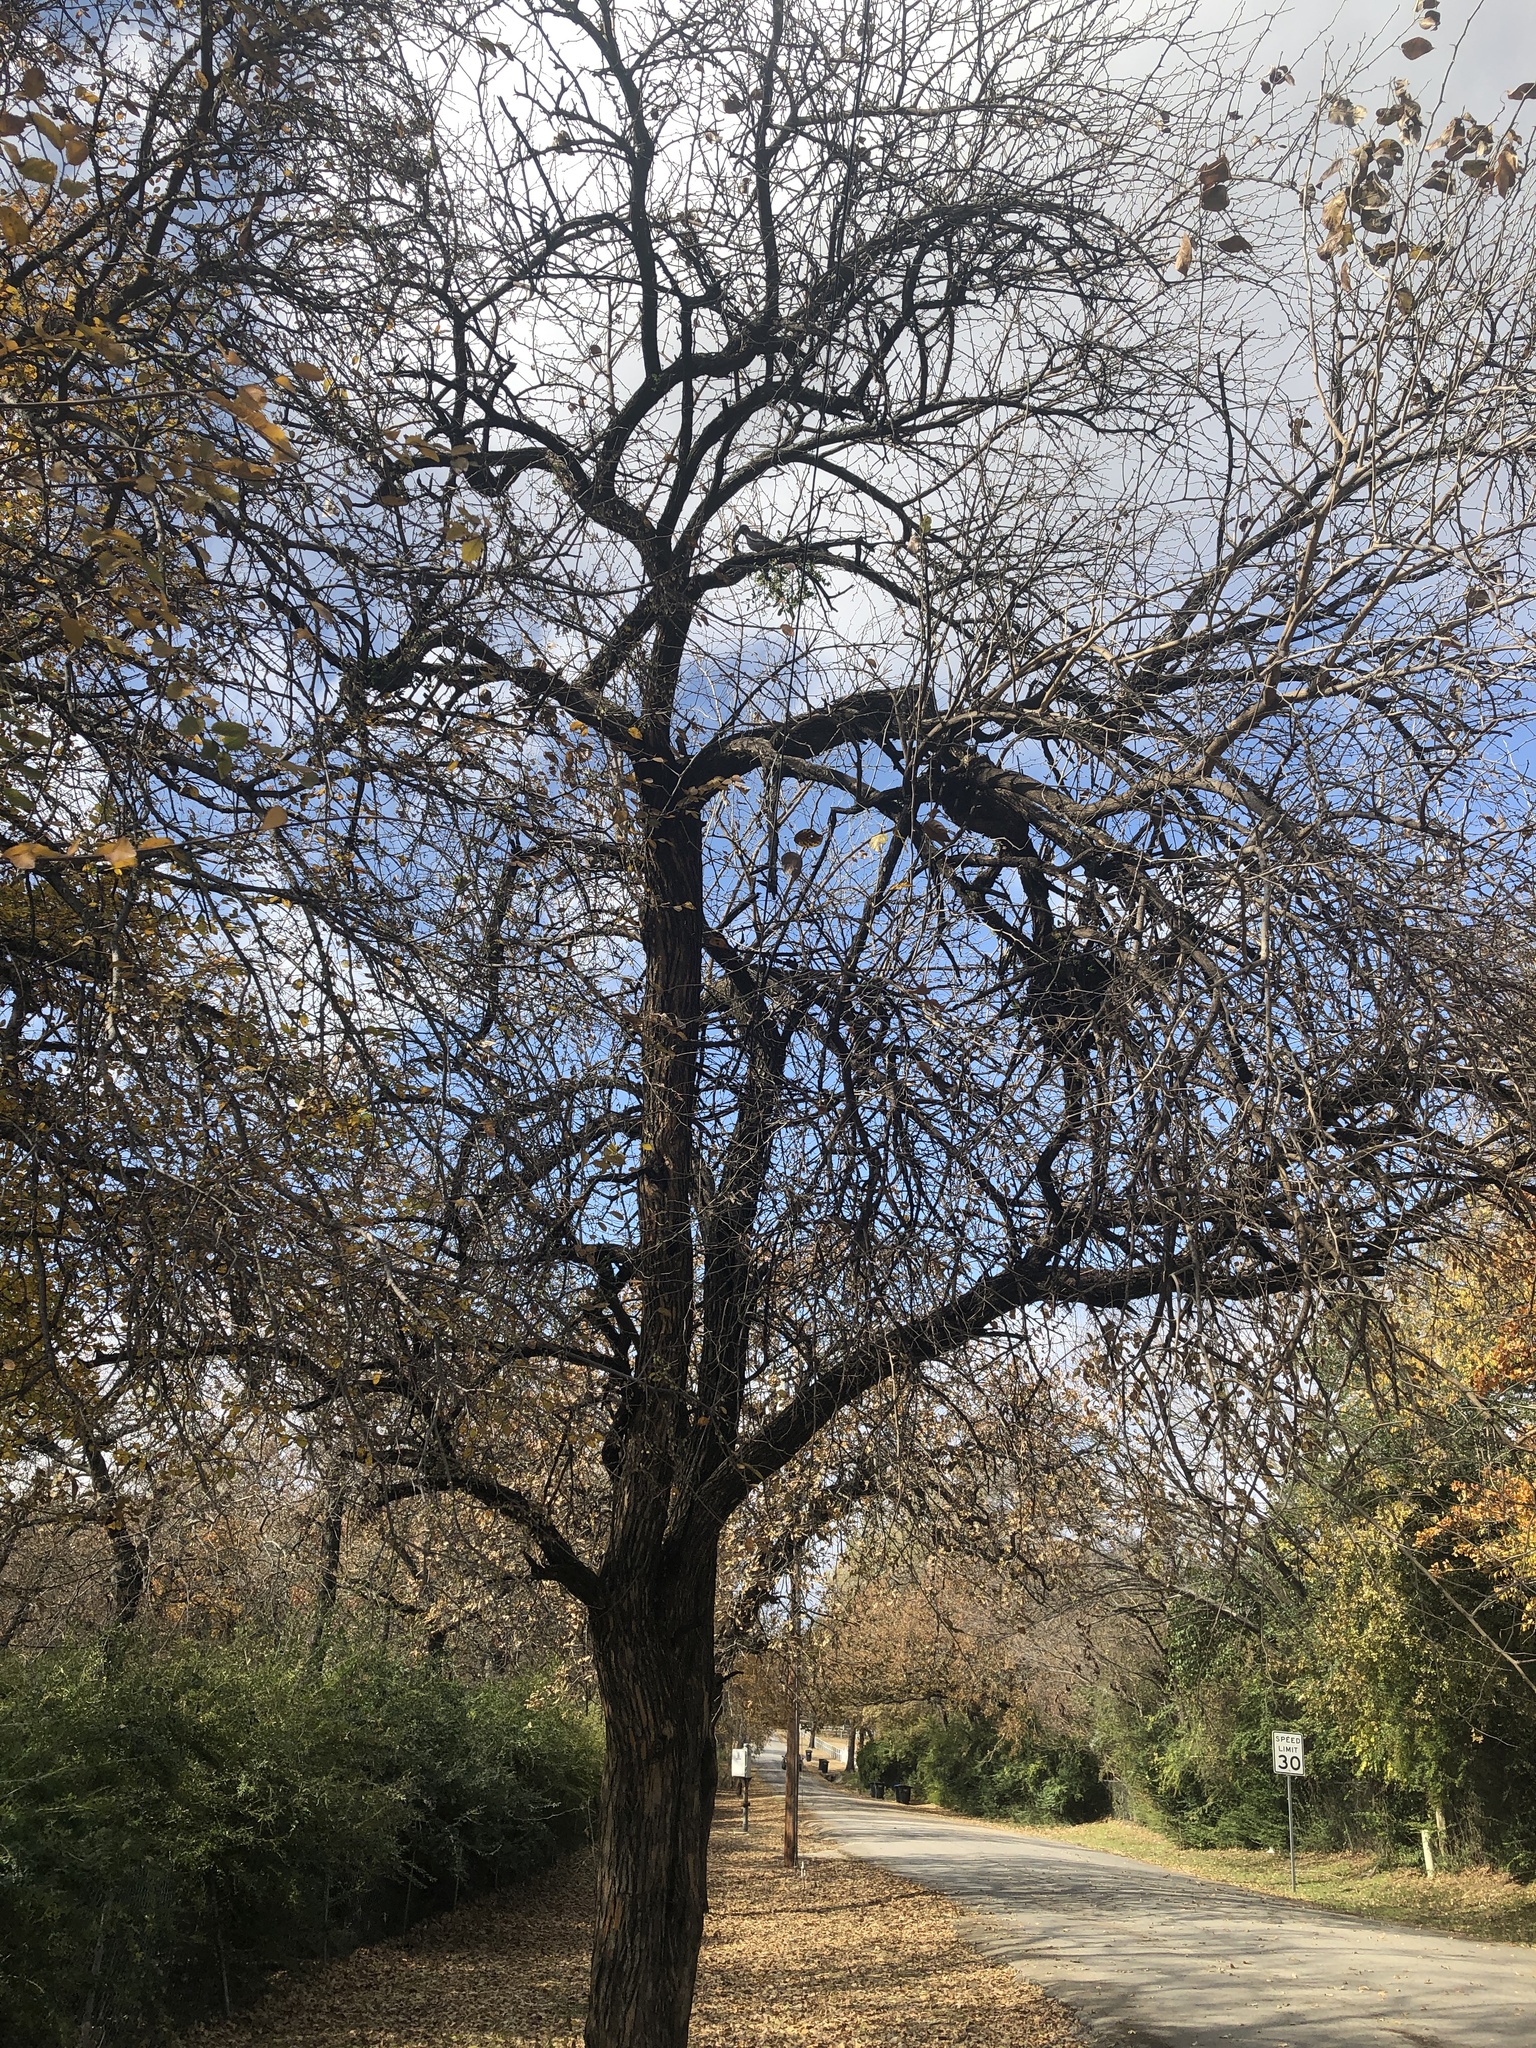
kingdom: Plantae
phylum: Tracheophyta
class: Magnoliopsida
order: Rosales
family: Moraceae
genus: Maclura
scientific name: Maclura pomifera
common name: Osage-orange
